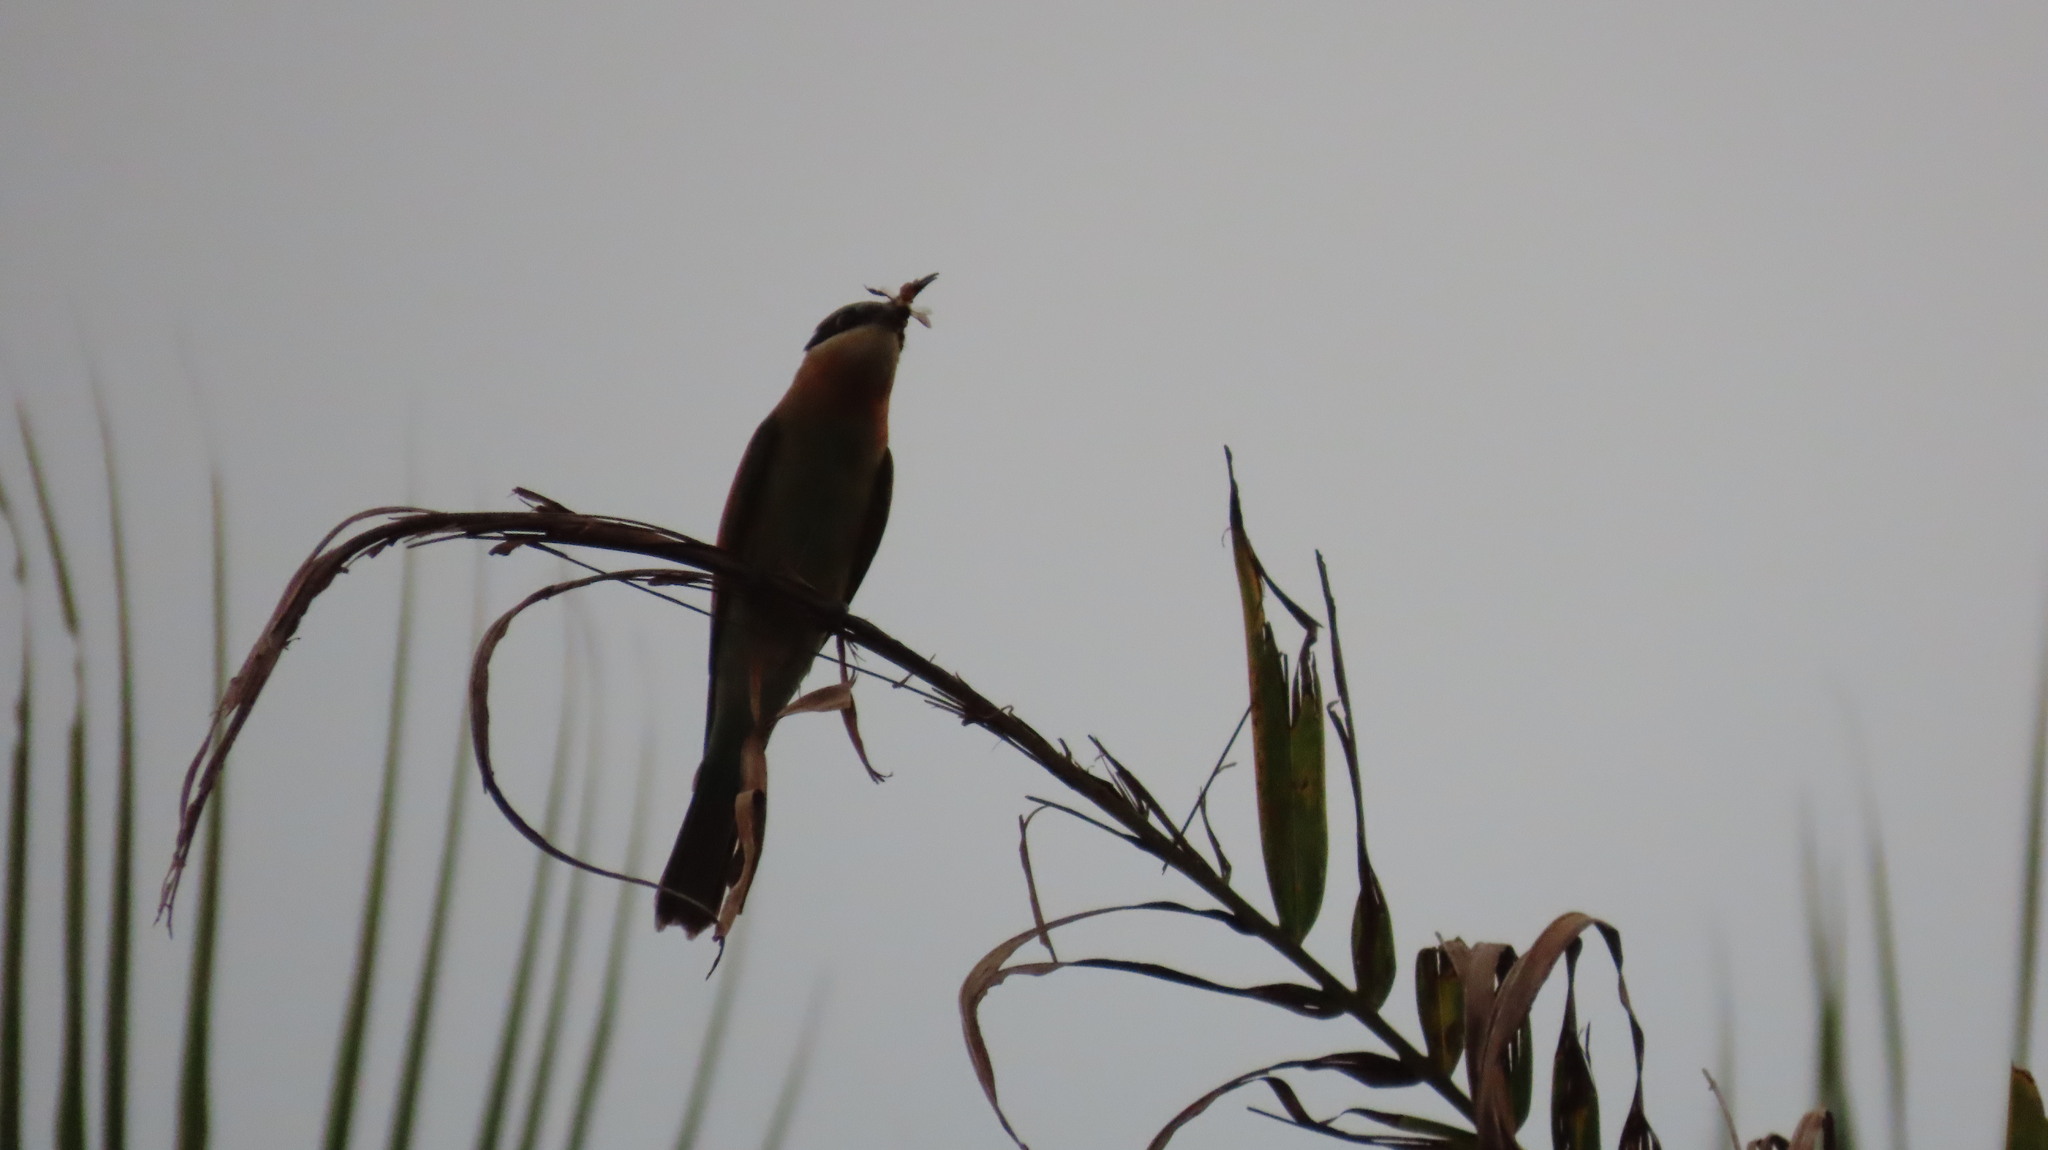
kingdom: Animalia
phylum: Chordata
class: Aves
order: Coraciiformes
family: Meropidae
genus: Merops
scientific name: Merops philippinus
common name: Blue-tailed bee-eater
